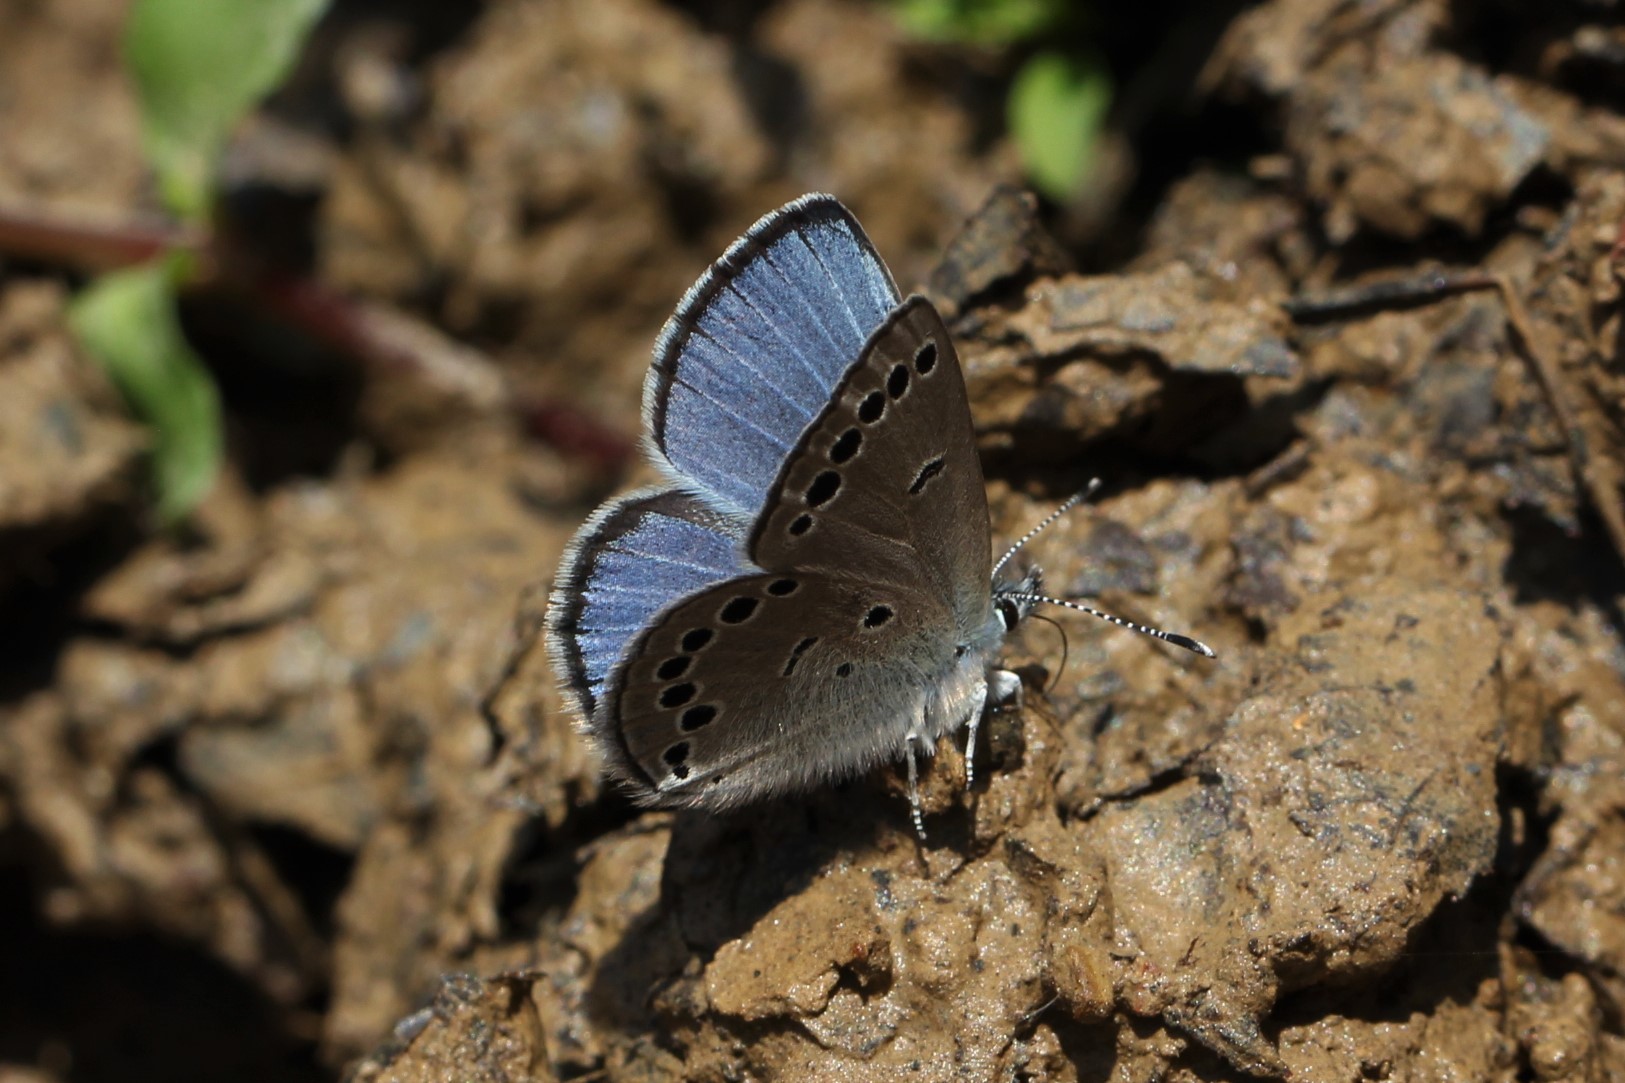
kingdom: Animalia
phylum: Arthropoda
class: Insecta
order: Lepidoptera
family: Lycaenidae
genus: Glaucopsyche
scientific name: Glaucopsyche lygdamus
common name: Silvery blue
